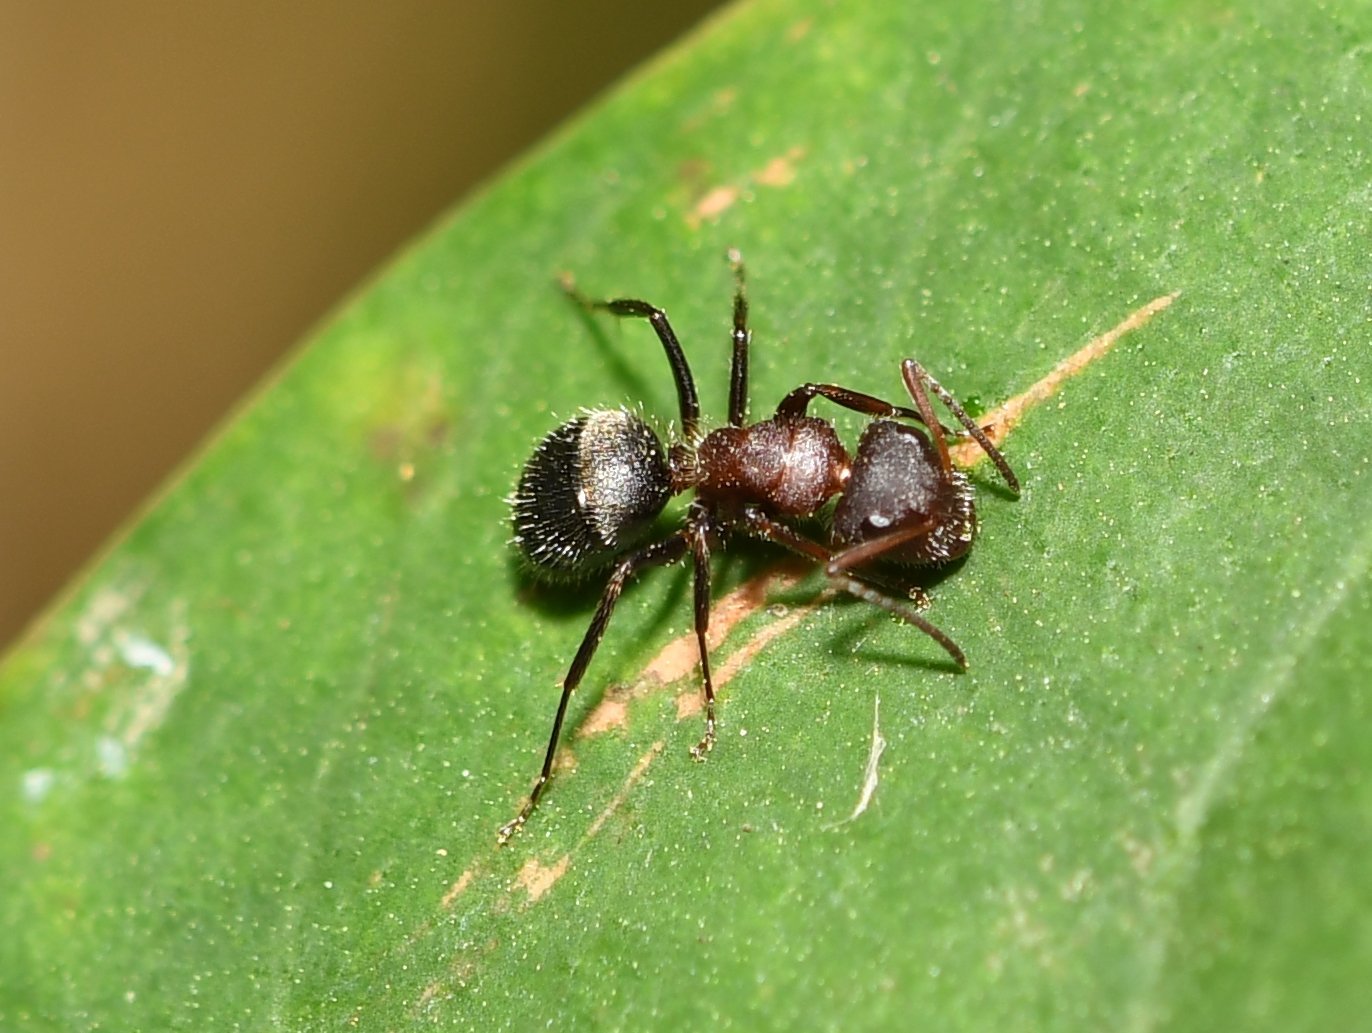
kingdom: Animalia
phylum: Arthropoda
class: Insecta
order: Hymenoptera
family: Formicidae
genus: Camponotus
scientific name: Camponotus planatus
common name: Compact carpenter ant
